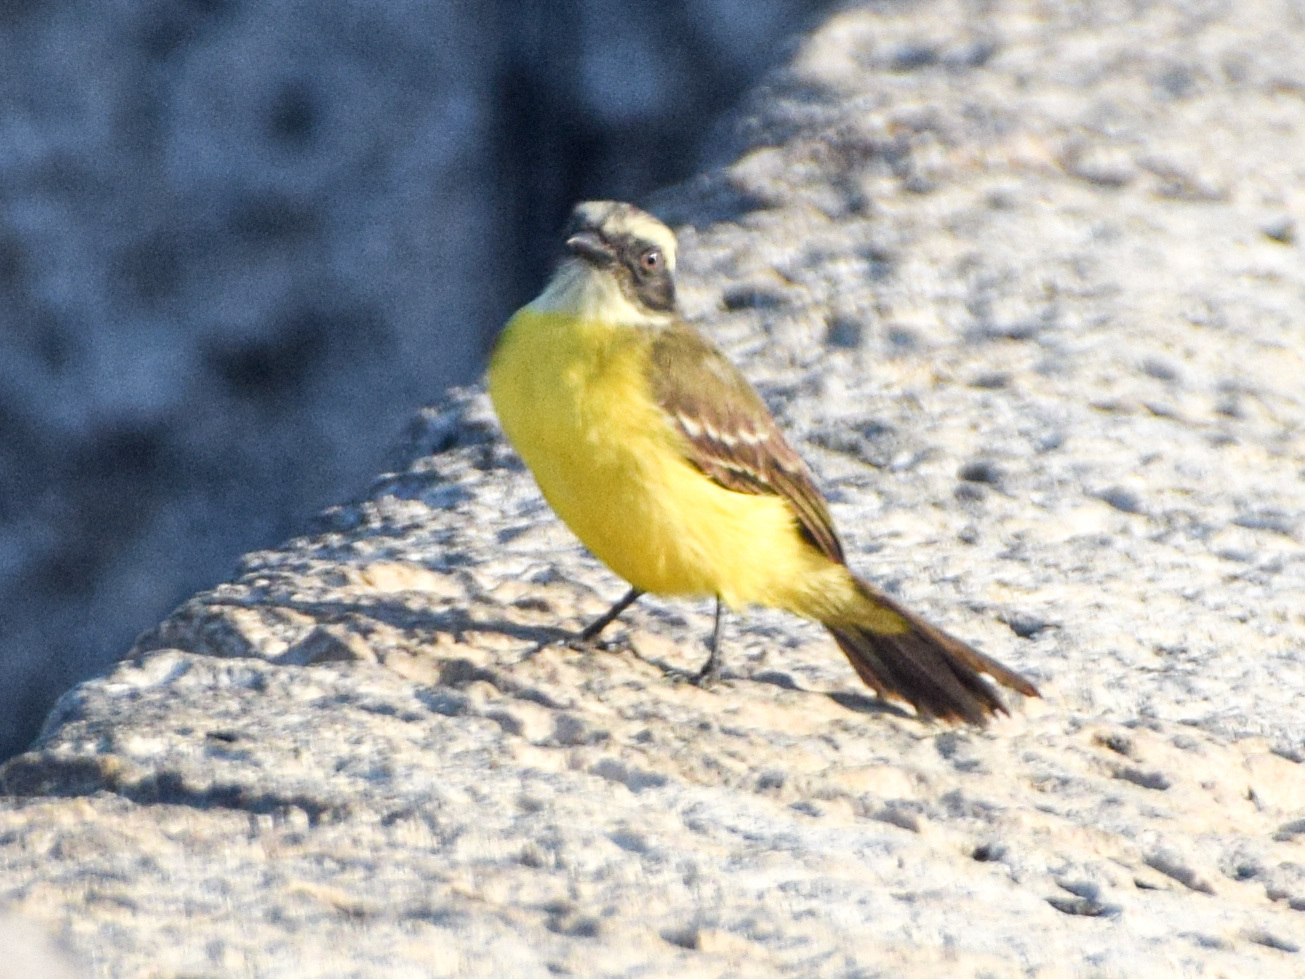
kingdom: Animalia
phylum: Chordata
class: Aves
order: Passeriformes
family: Tyrannidae
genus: Myiozetetes
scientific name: Myiozetetes similis
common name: Social flycatcher
